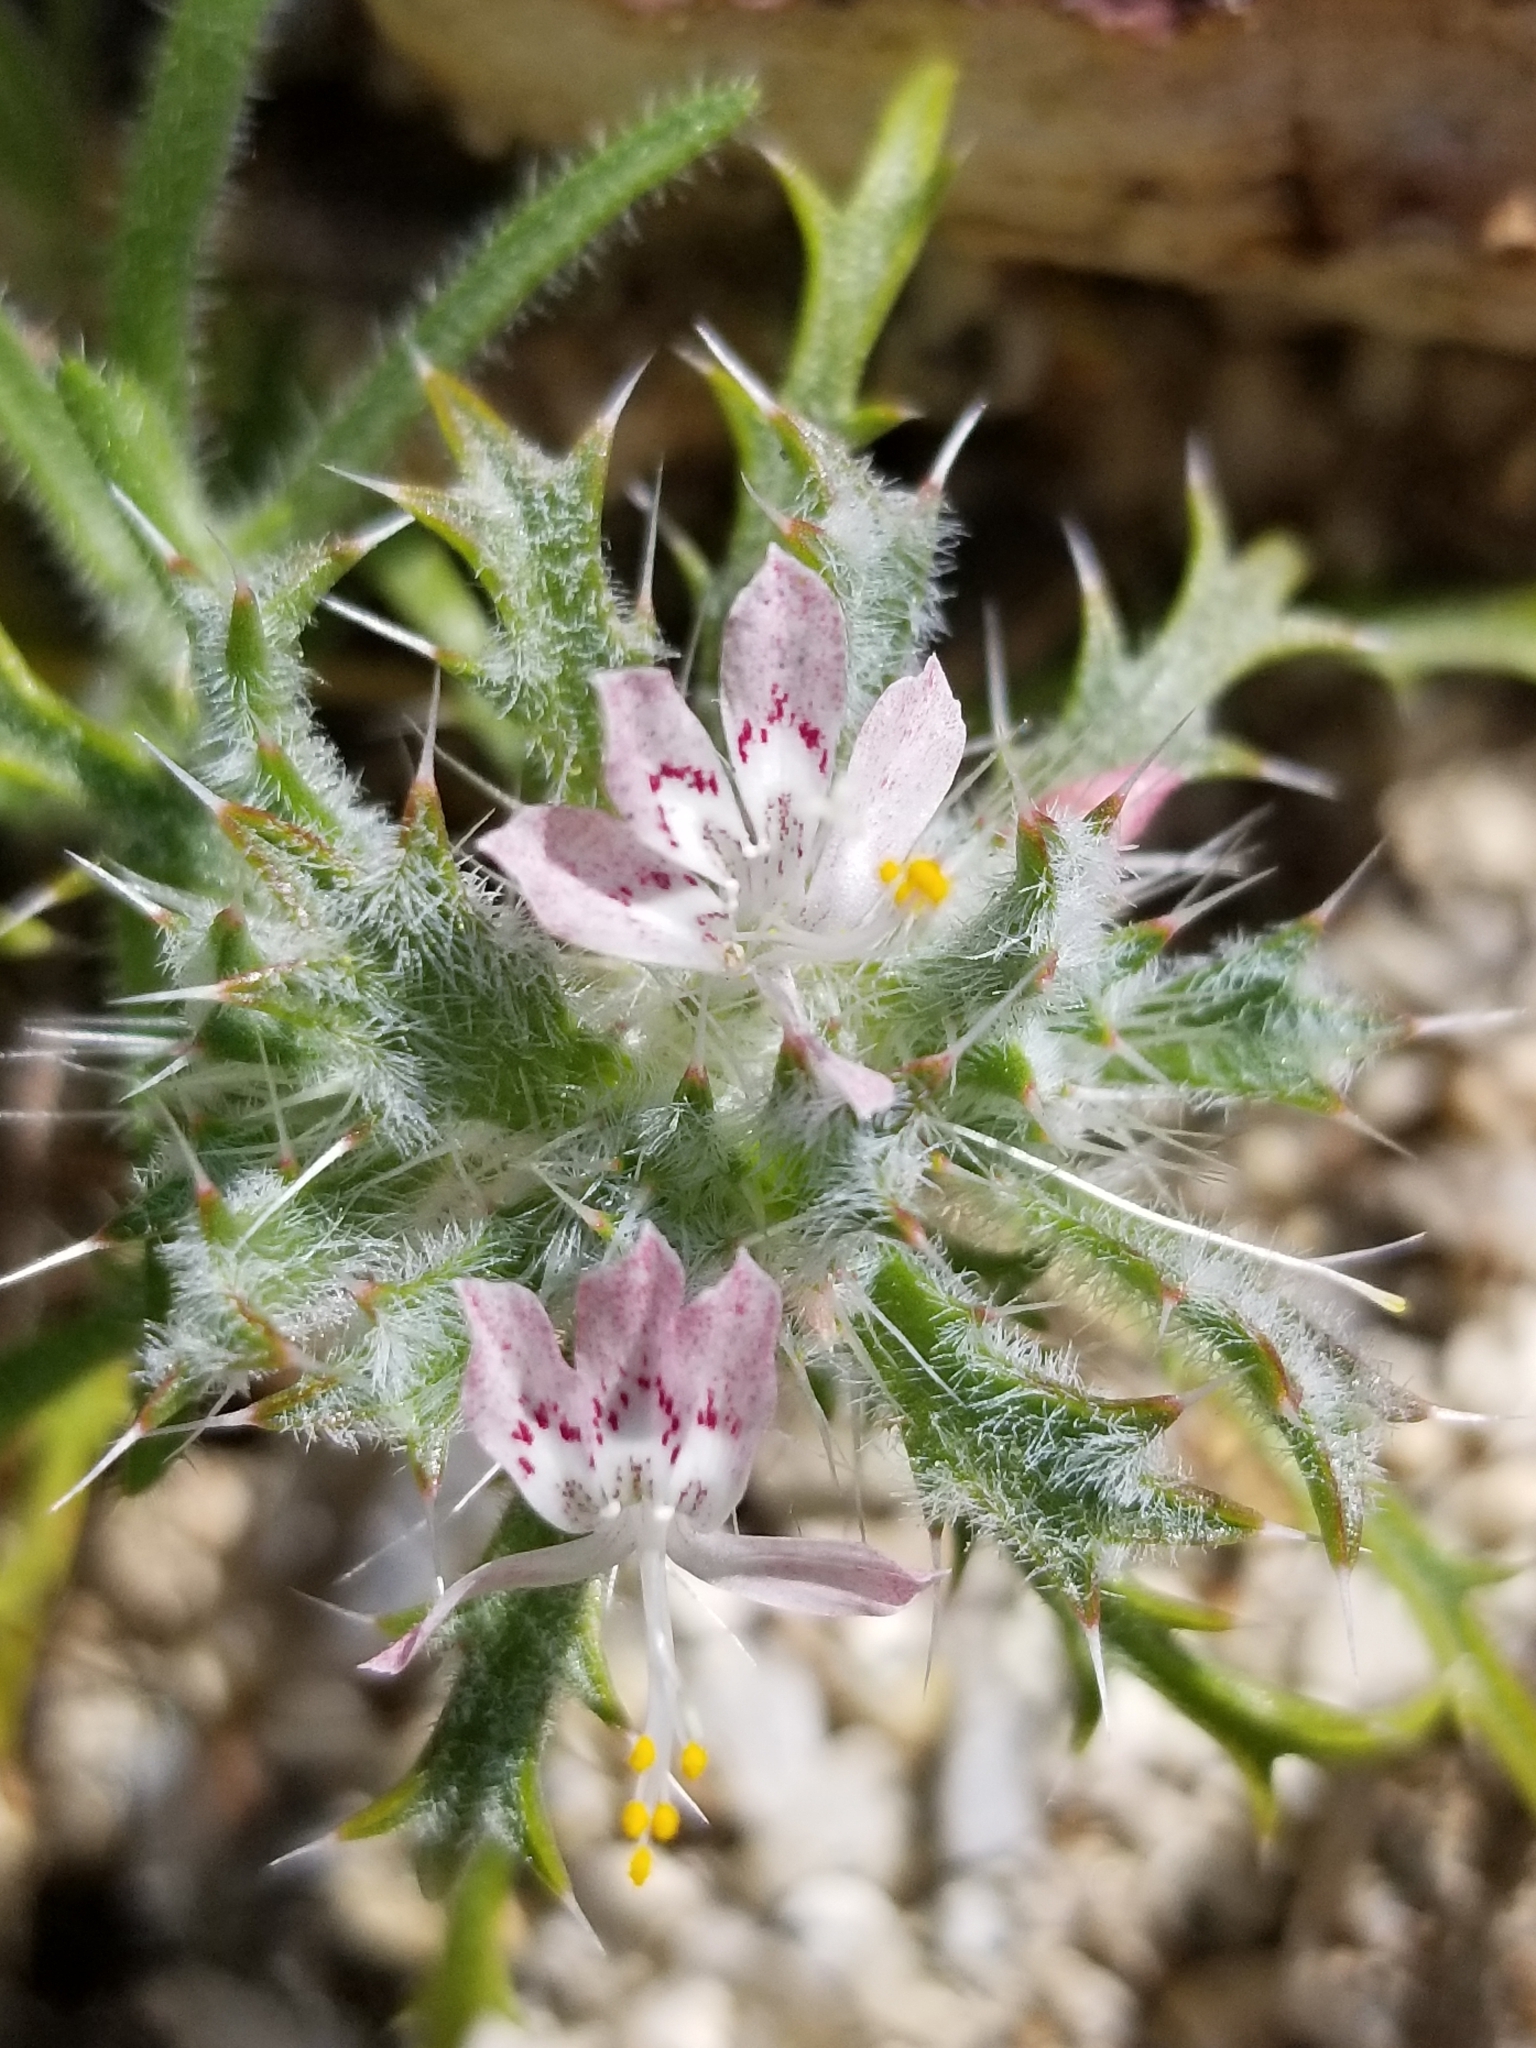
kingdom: Plantae
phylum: Tracheophyta
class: Magnoliopsida
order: Ericales
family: Polemoniaceae
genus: Loeseliastrum
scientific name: Loeseliastrum matthewsii
